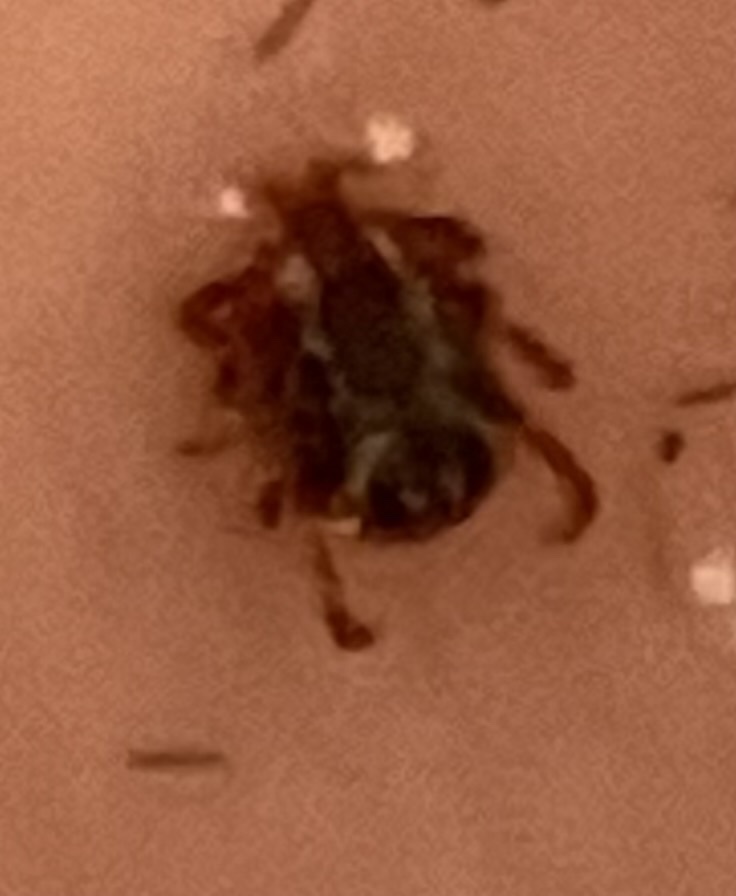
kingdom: Animalia
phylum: Arthropoda
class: Arachnida
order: Ixodida
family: Ixodidae
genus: Dermacentor
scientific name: Dermacentor variabilis
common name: American dog tick
